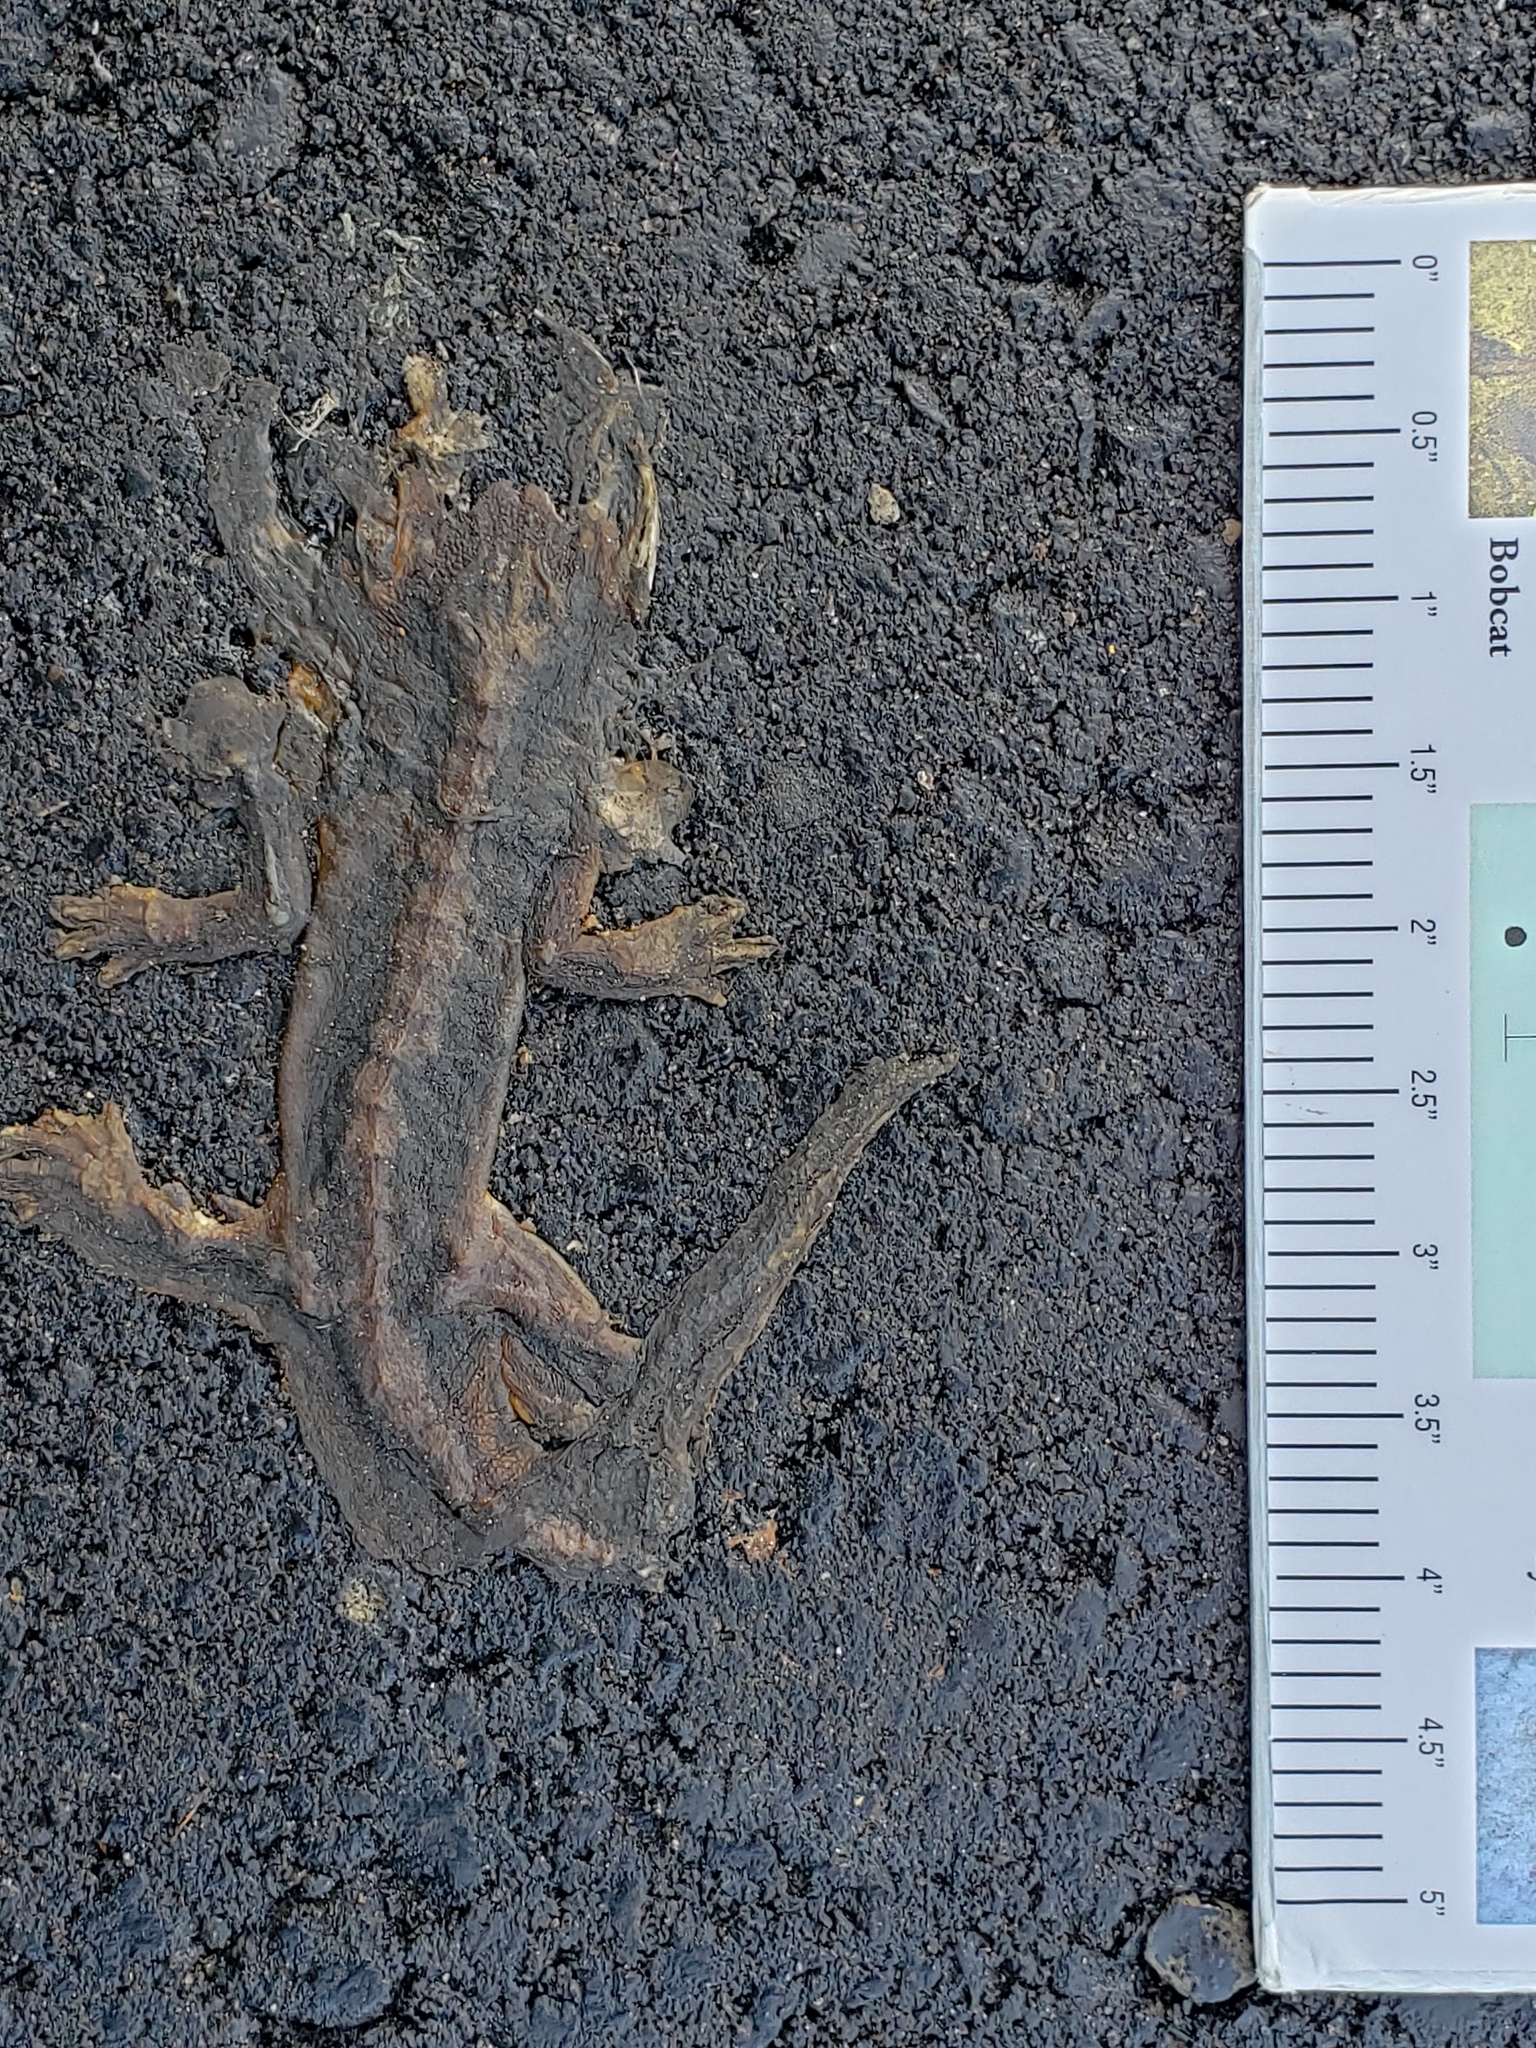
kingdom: Animalia
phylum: Chordata
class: Amphibia
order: Caudata
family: Salamandridae
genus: Taricha
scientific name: Taricha
